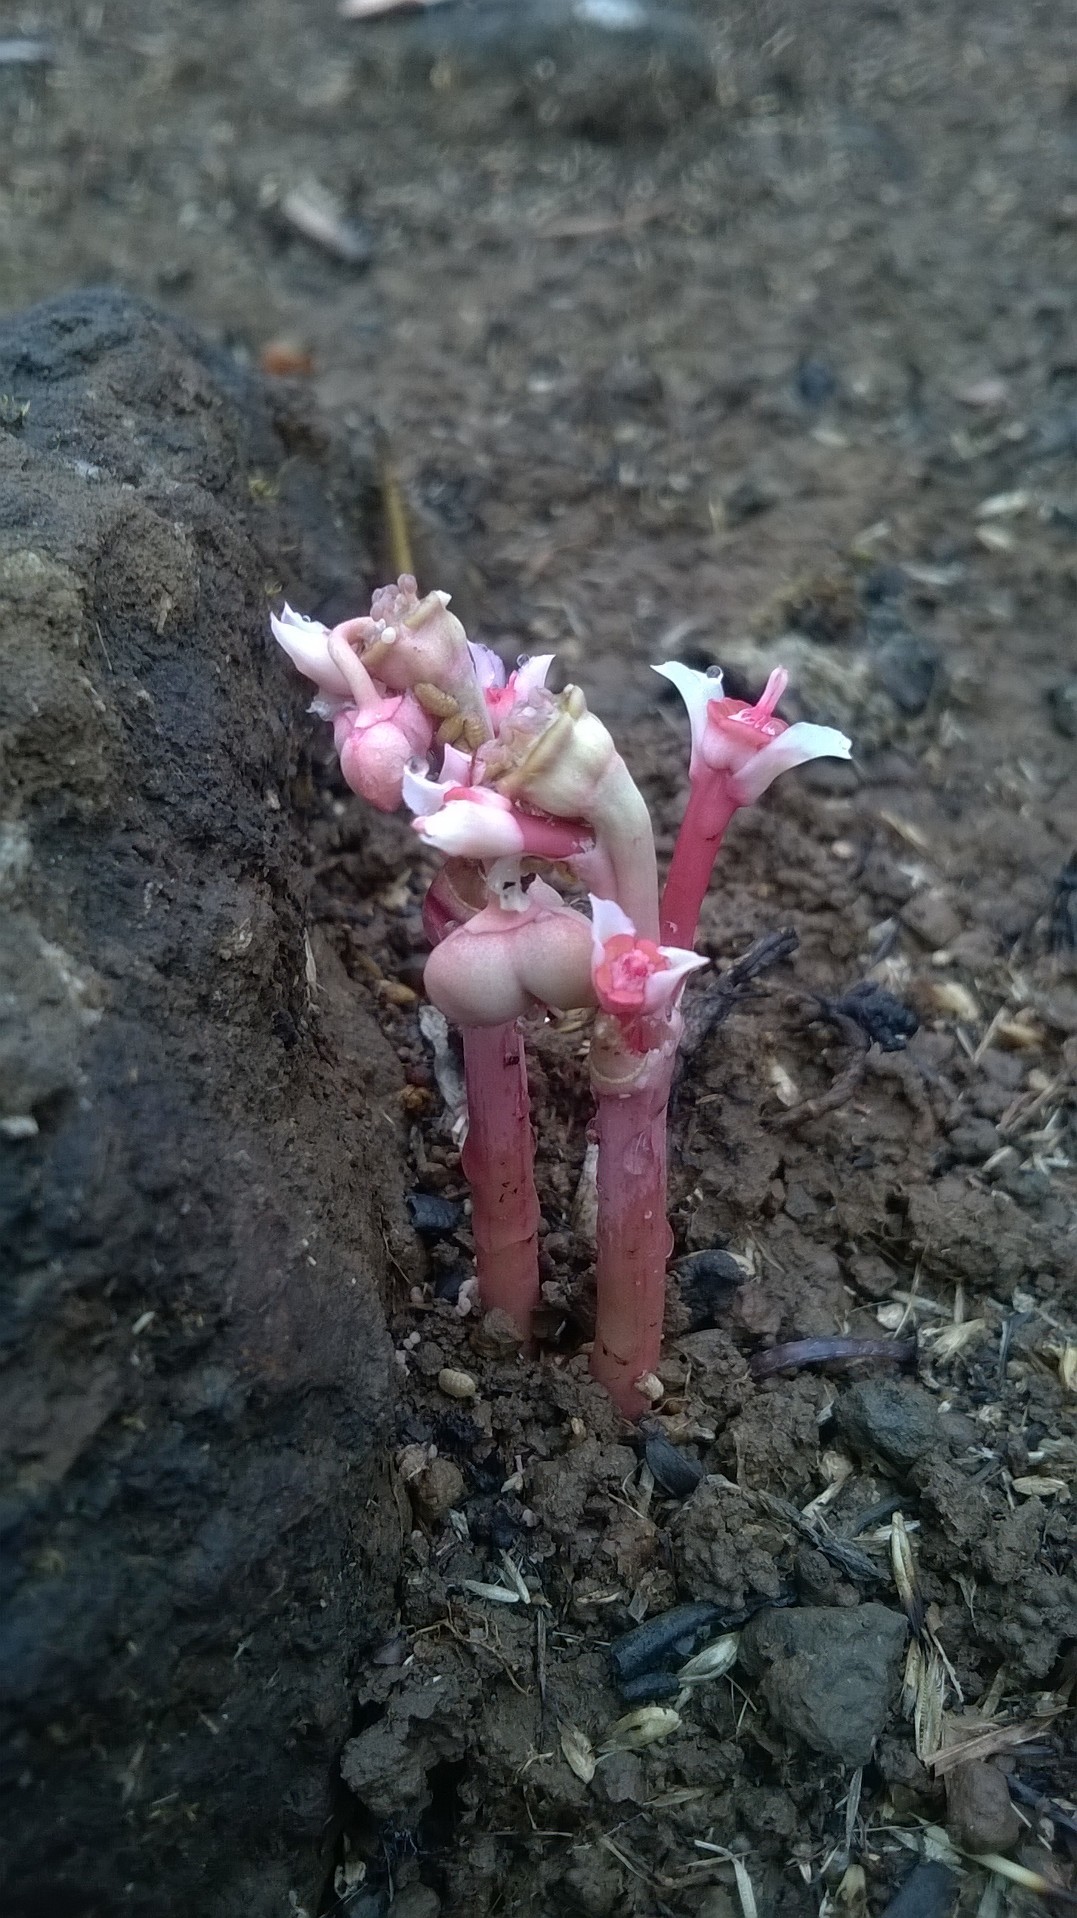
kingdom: Plantae
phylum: Tracheophyta
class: Magnoliopsida
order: Malpighiales
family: Euphorbiaceae
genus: Euphorbia
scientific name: Euphorbia fusiformis
